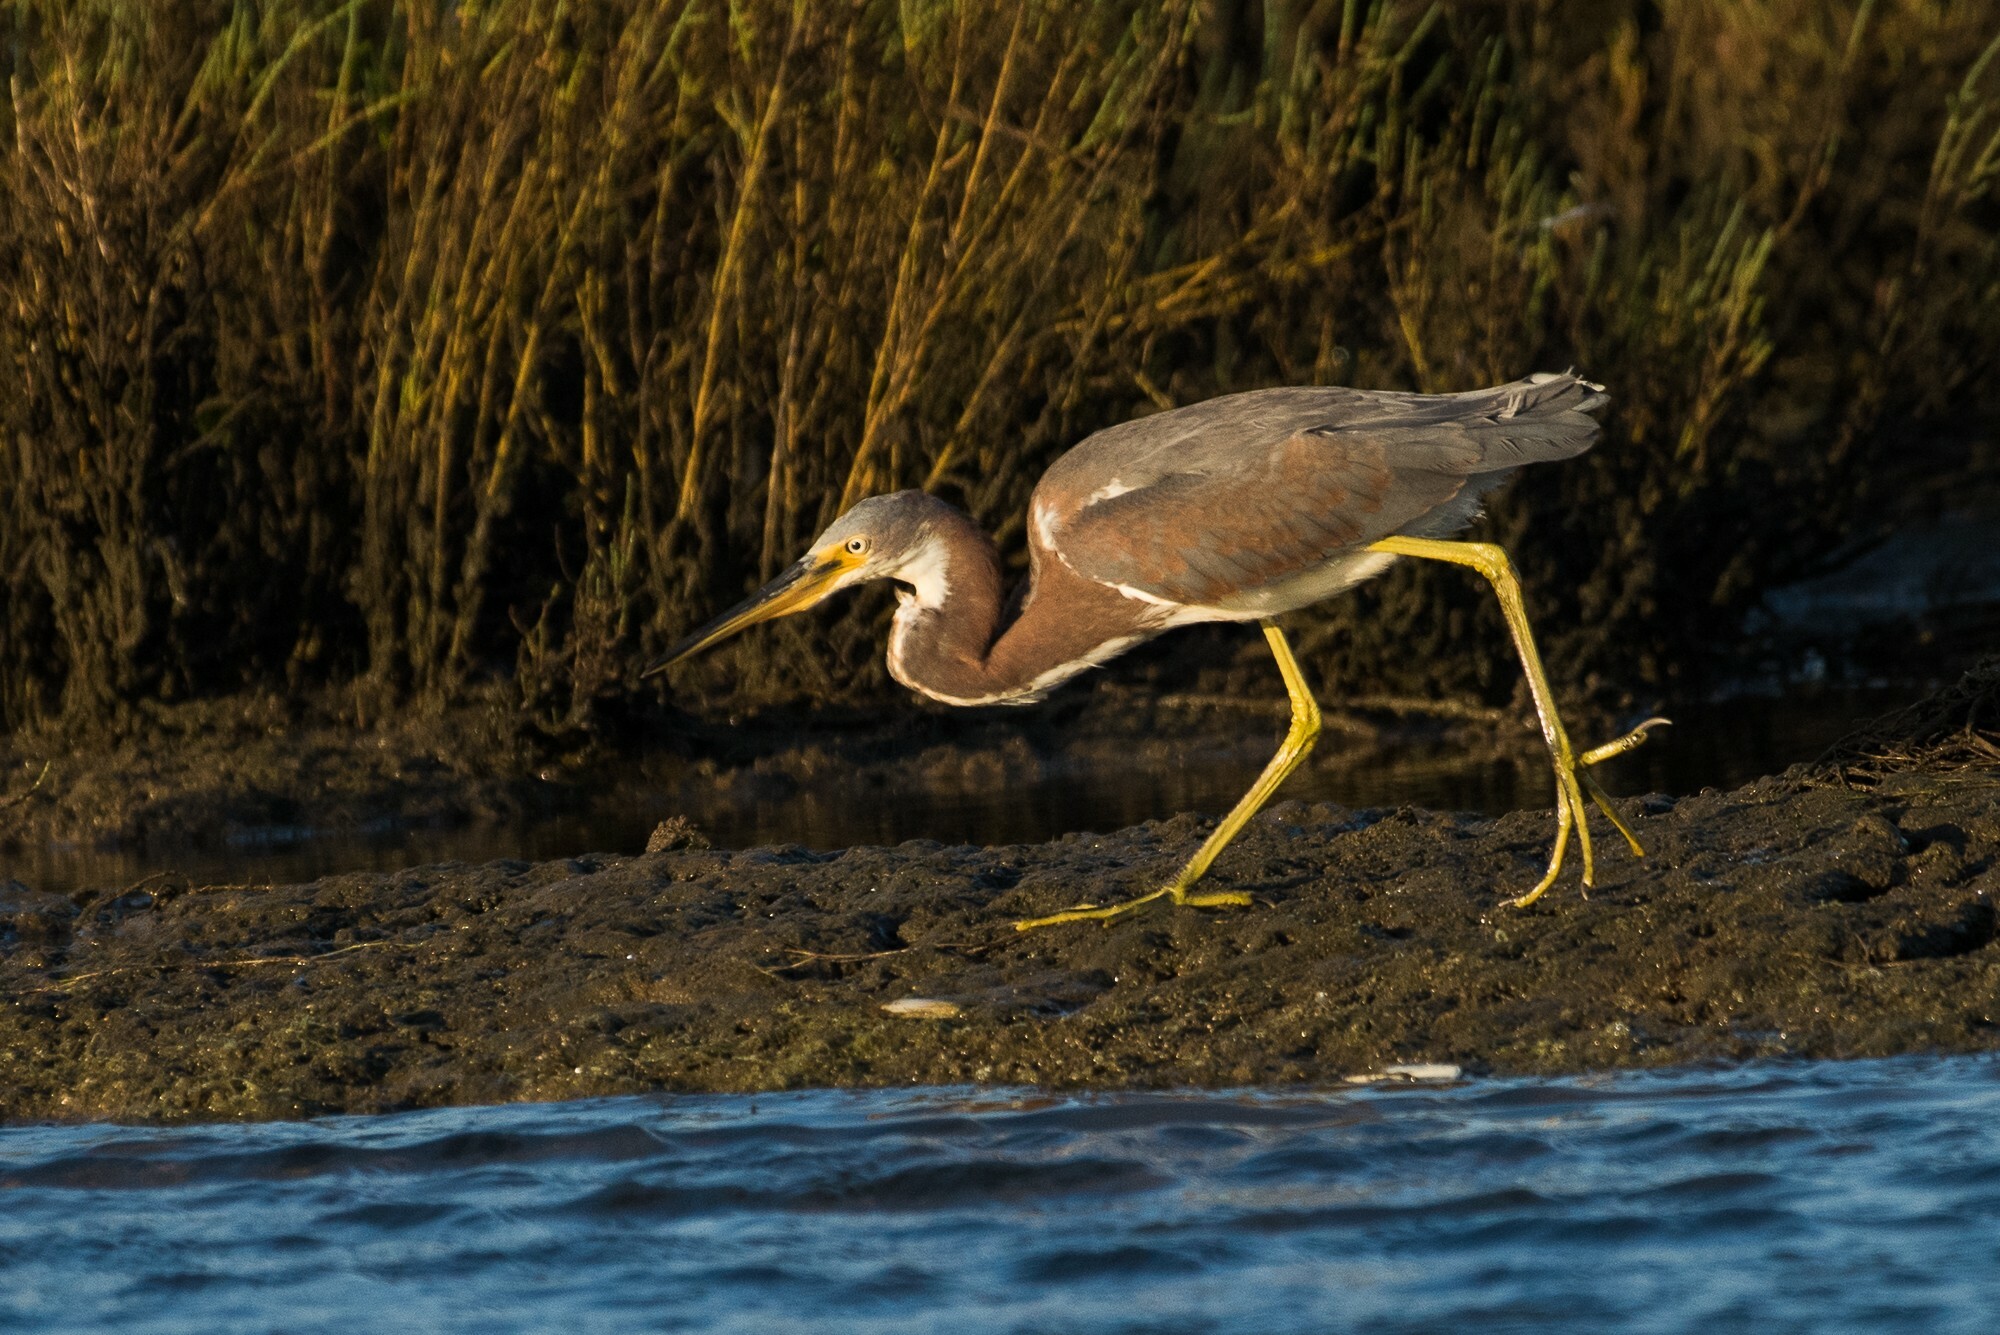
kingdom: Animalia
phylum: Chordata
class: Aves
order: Pelecaniformes
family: Ardeidae
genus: Egretta
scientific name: Egretta tricolor
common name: Tricolored heron
